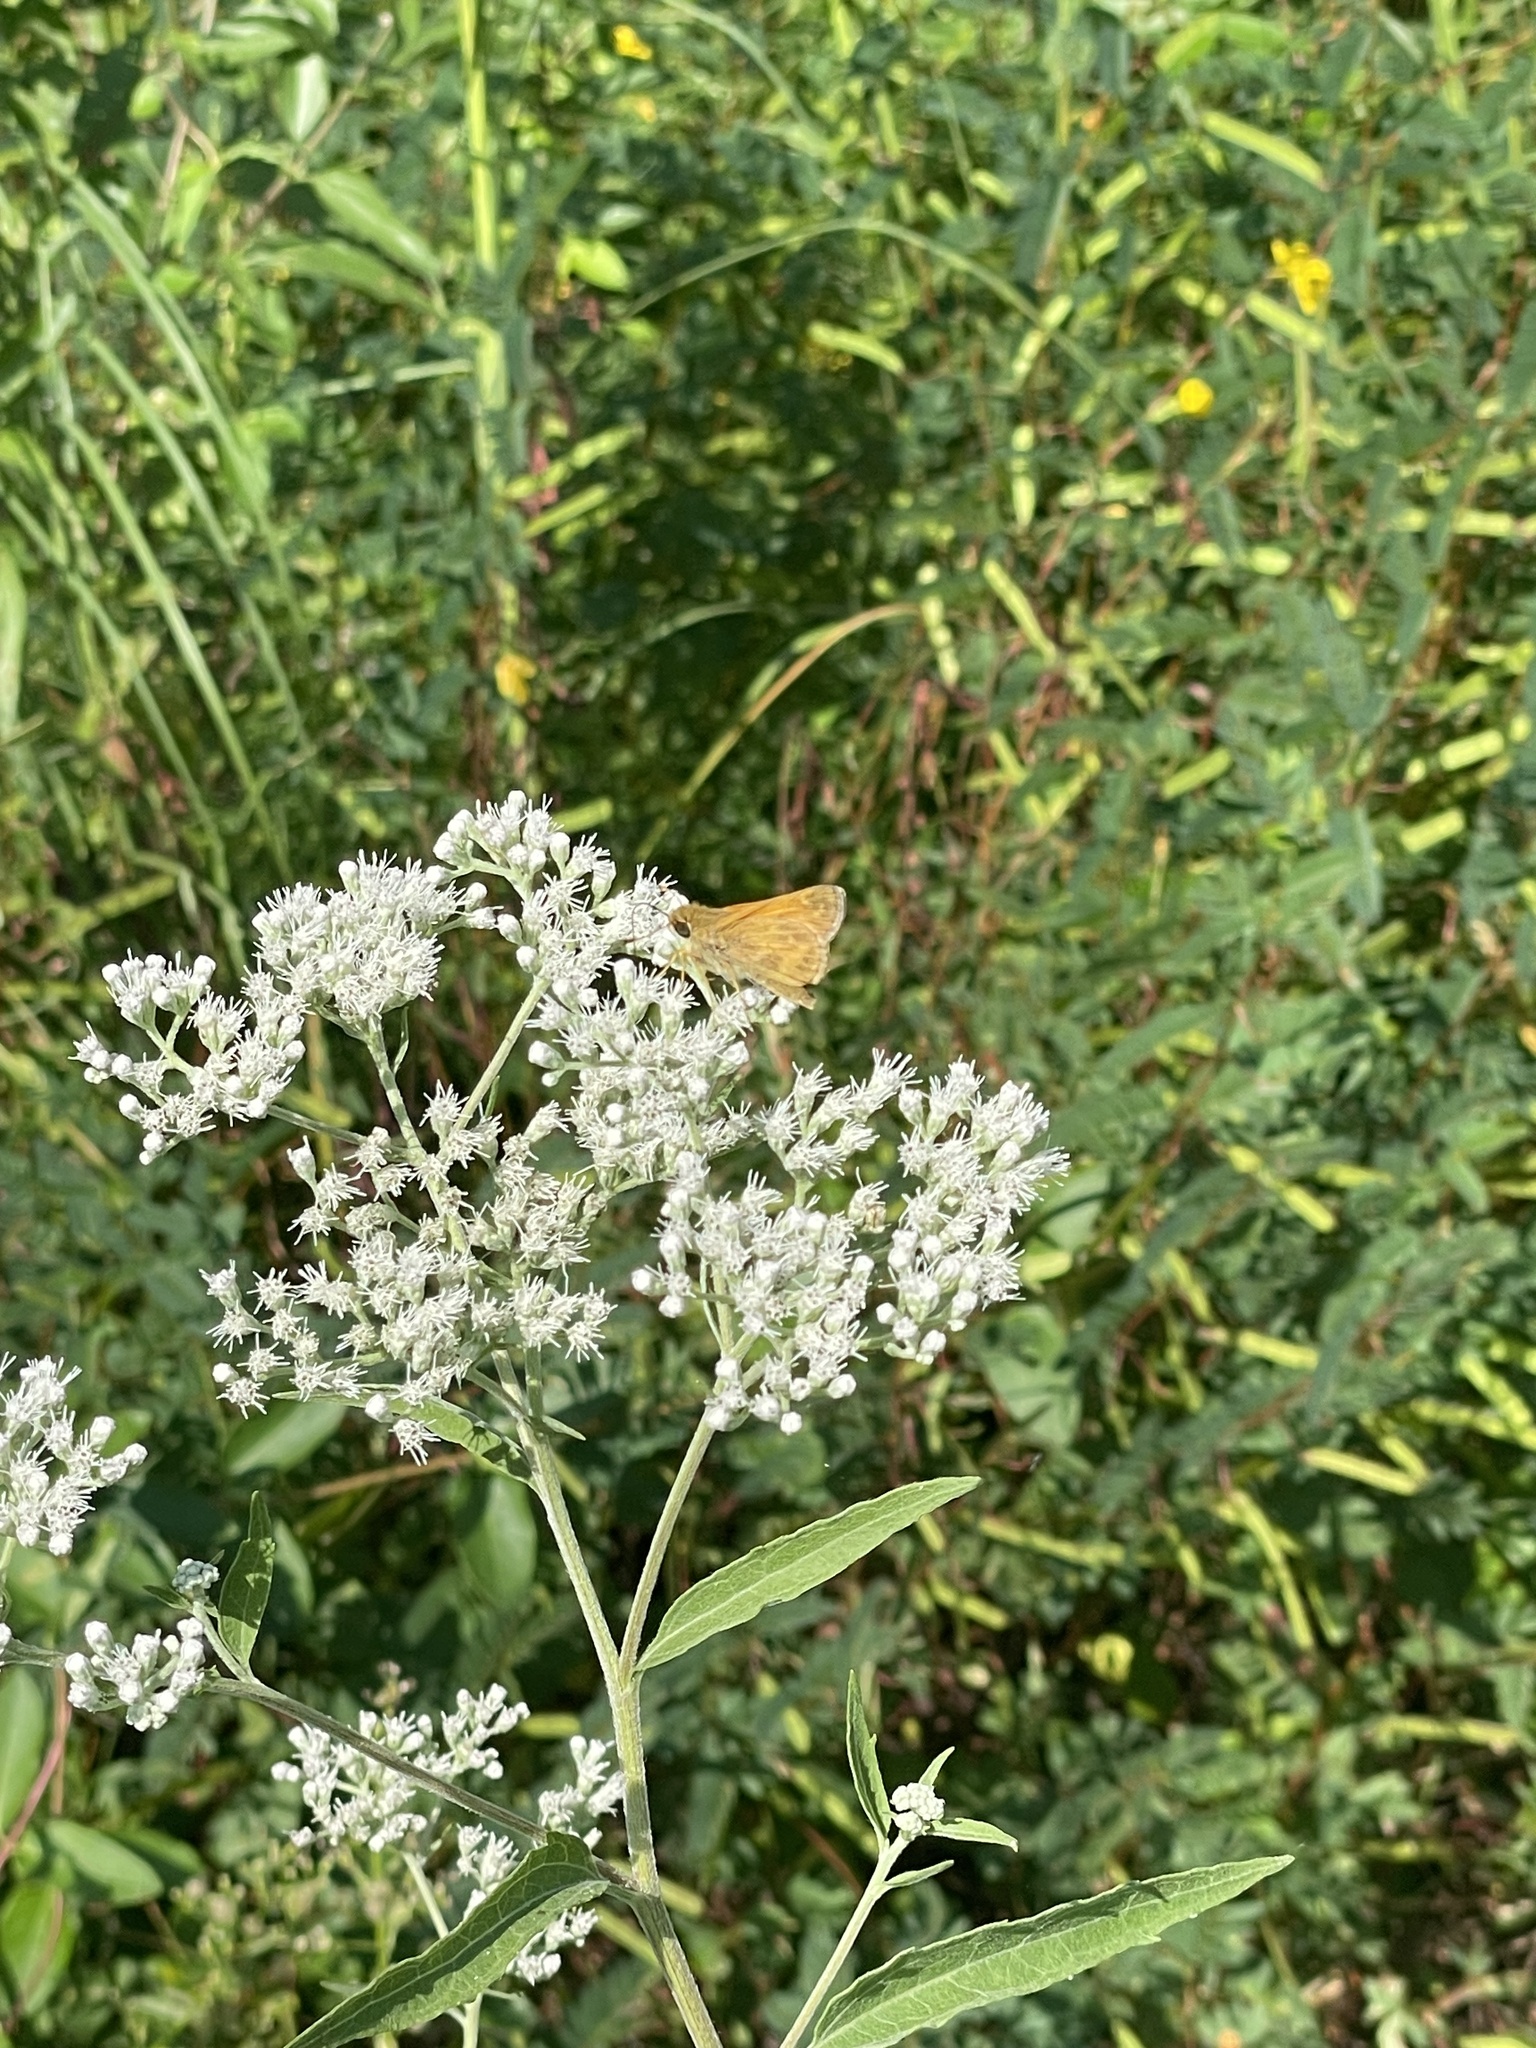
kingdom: Animalia
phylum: Arthropoda
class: Insecta
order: Lepidoptera
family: Hesperiidae
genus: Atalopedes
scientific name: Atalopedes
